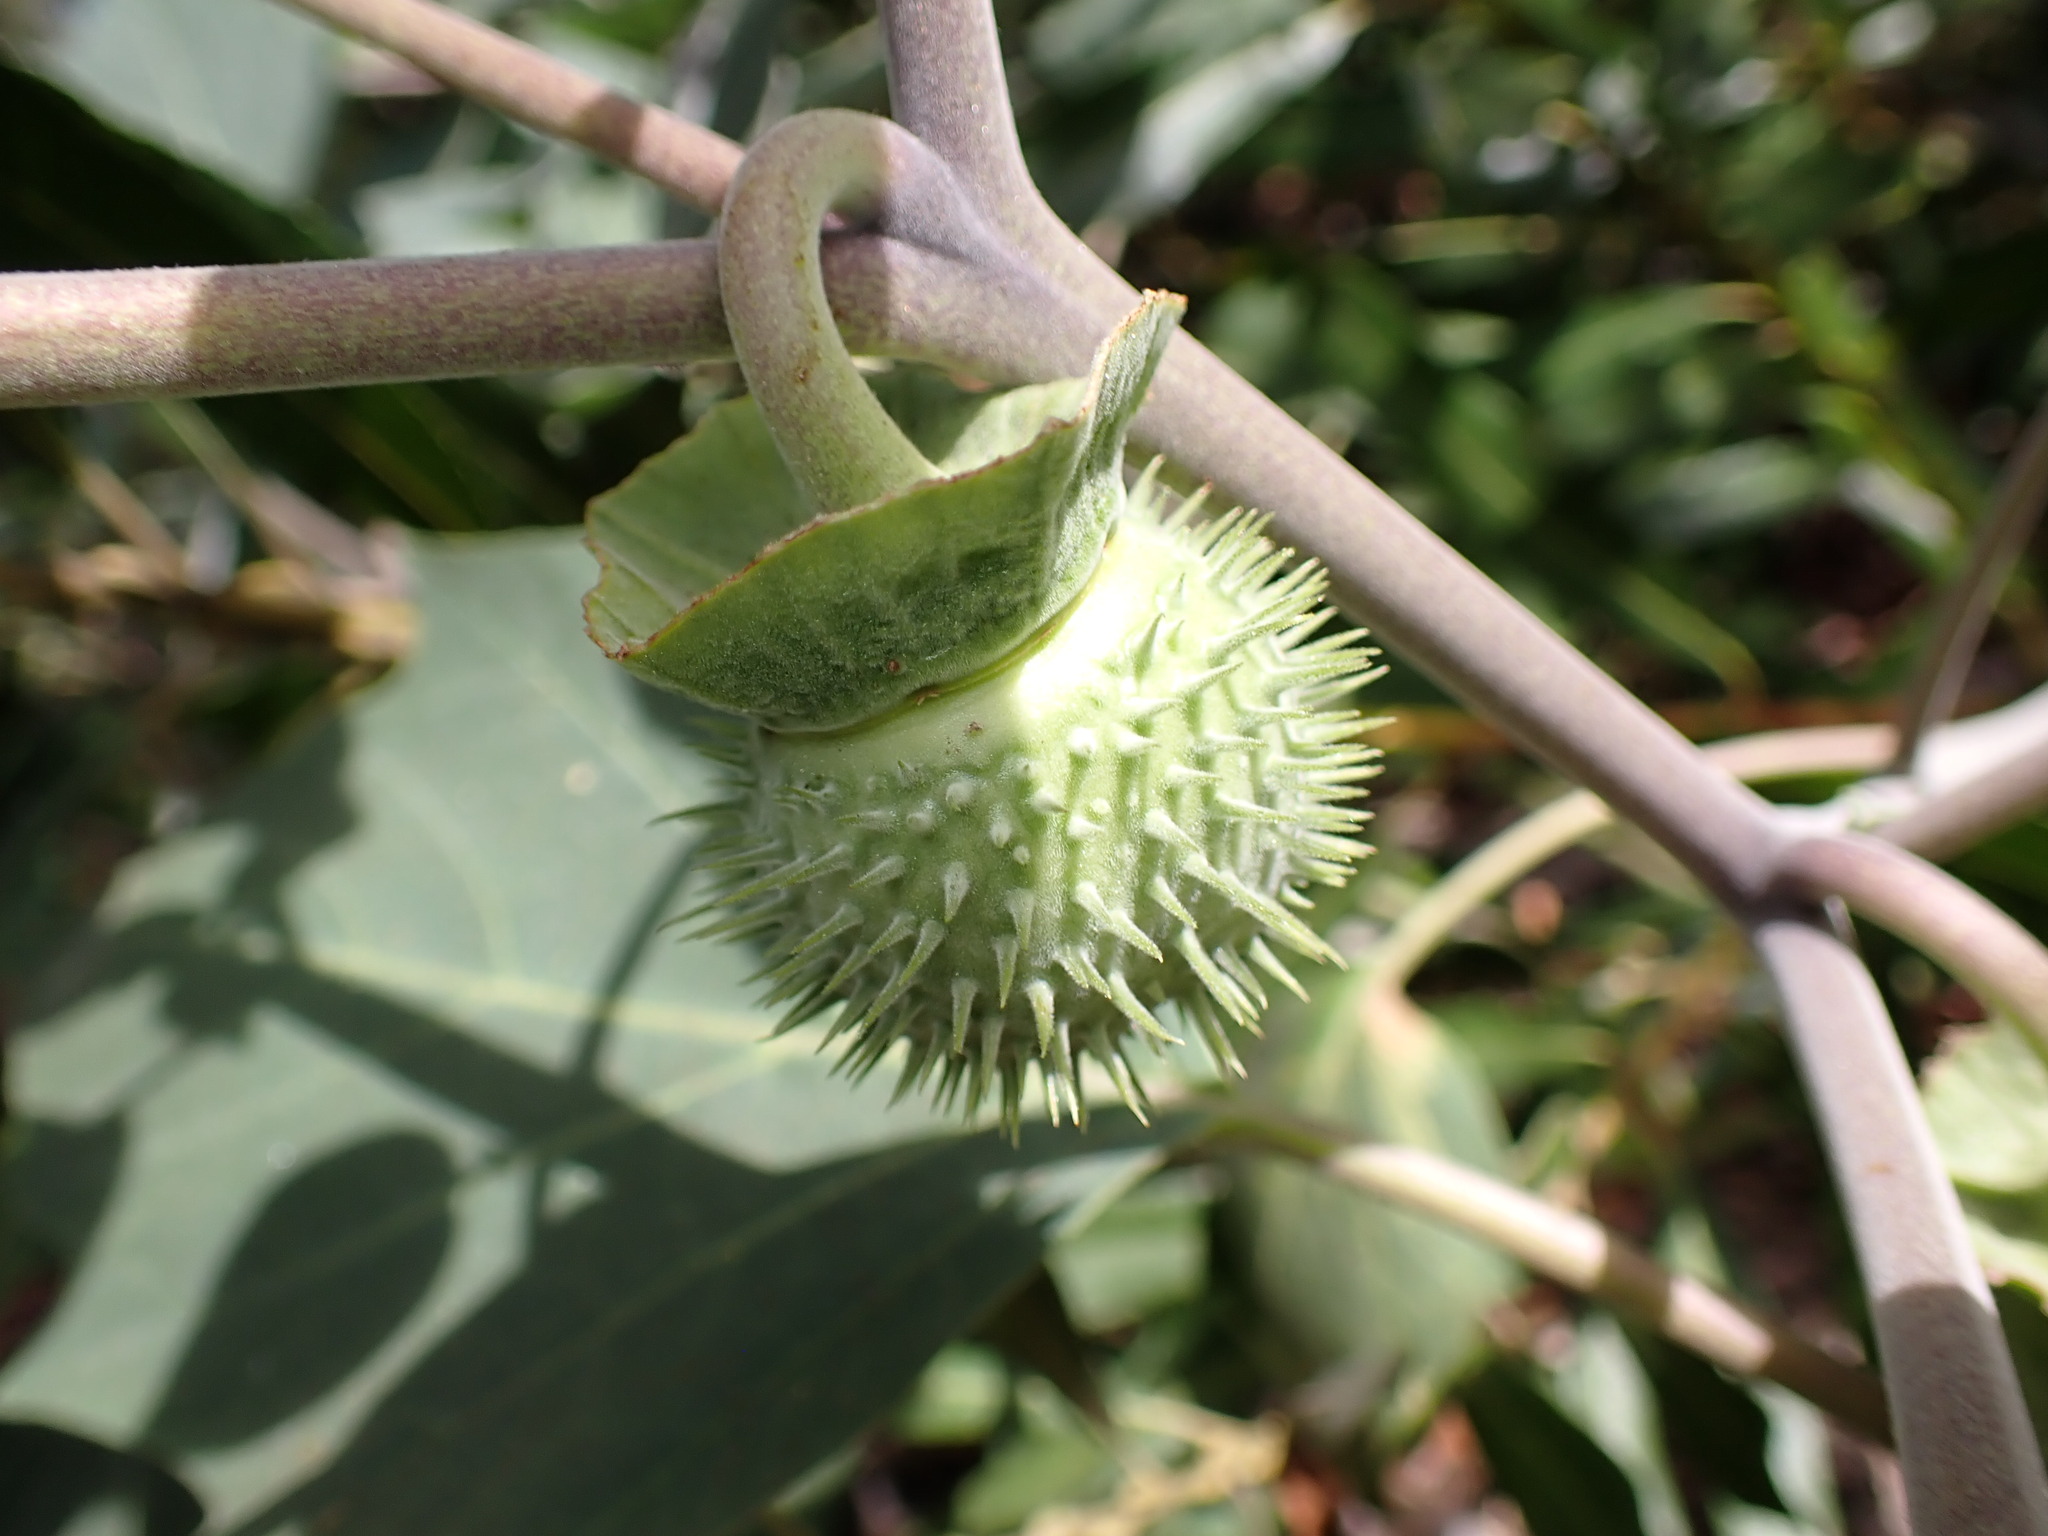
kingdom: Plantae
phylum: Tracheophyta
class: Magnoliopsida
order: Solanales
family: Solanaceae
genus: Datura
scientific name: Datura wrightii
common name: Sacred thorn-apple
